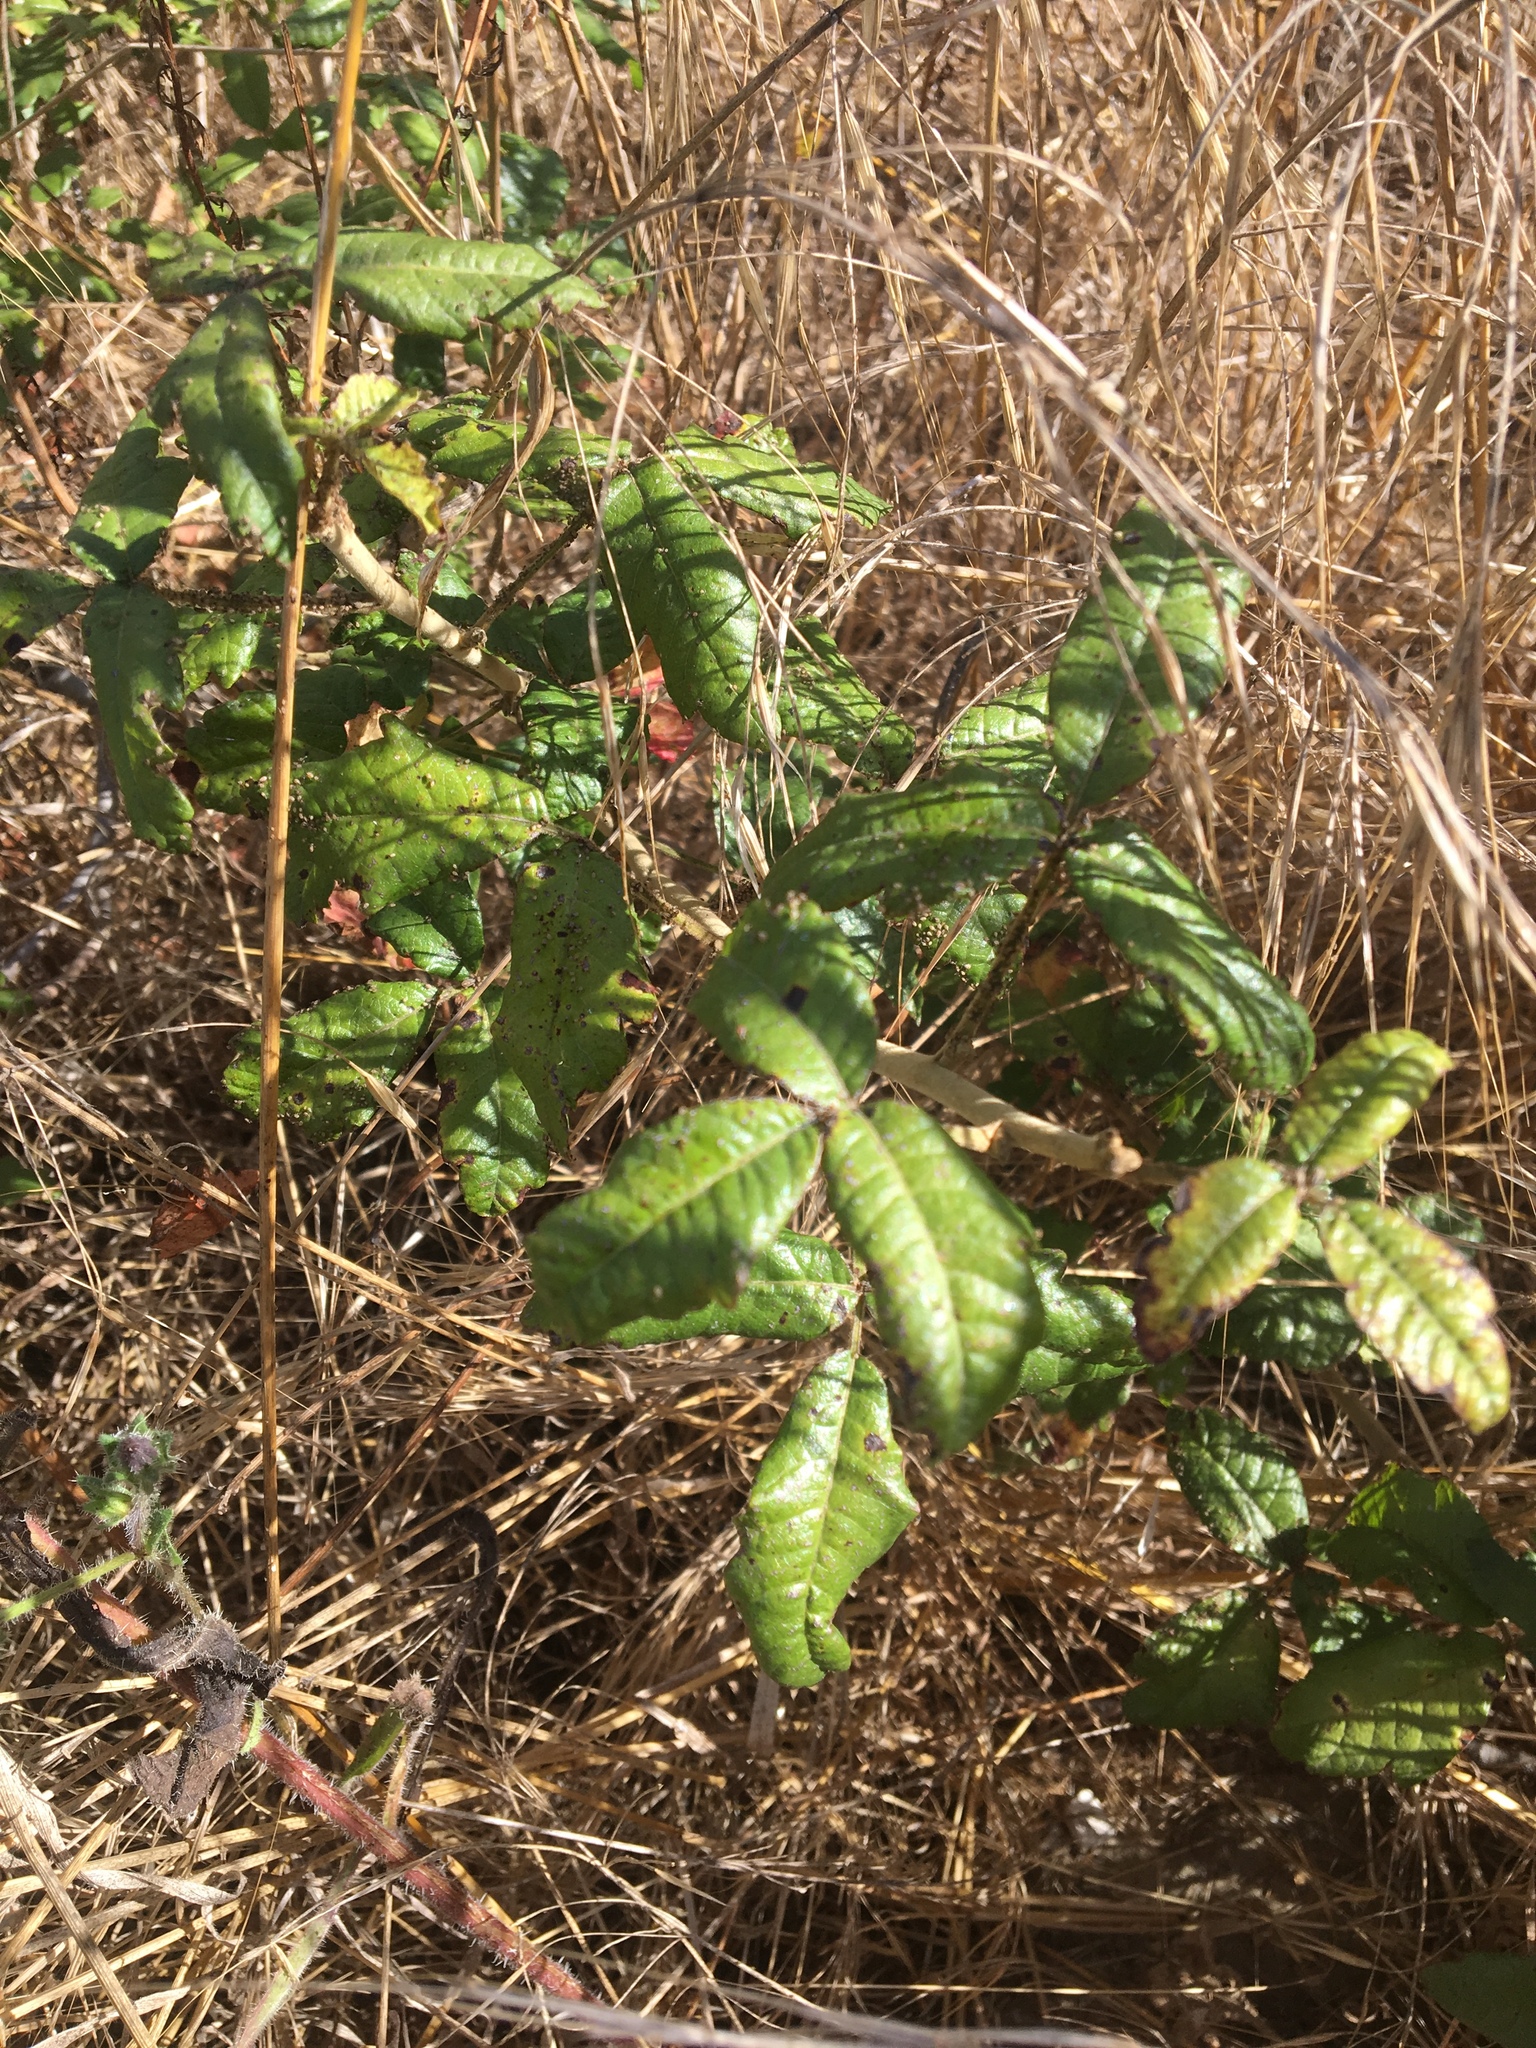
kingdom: Plantae
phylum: Tracheophyta
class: Magnoliopsida
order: Sapindales
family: Anacardiaceae
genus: Toxicodendron
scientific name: Toxicodendron diversilobum
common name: Pacific poison-oak
